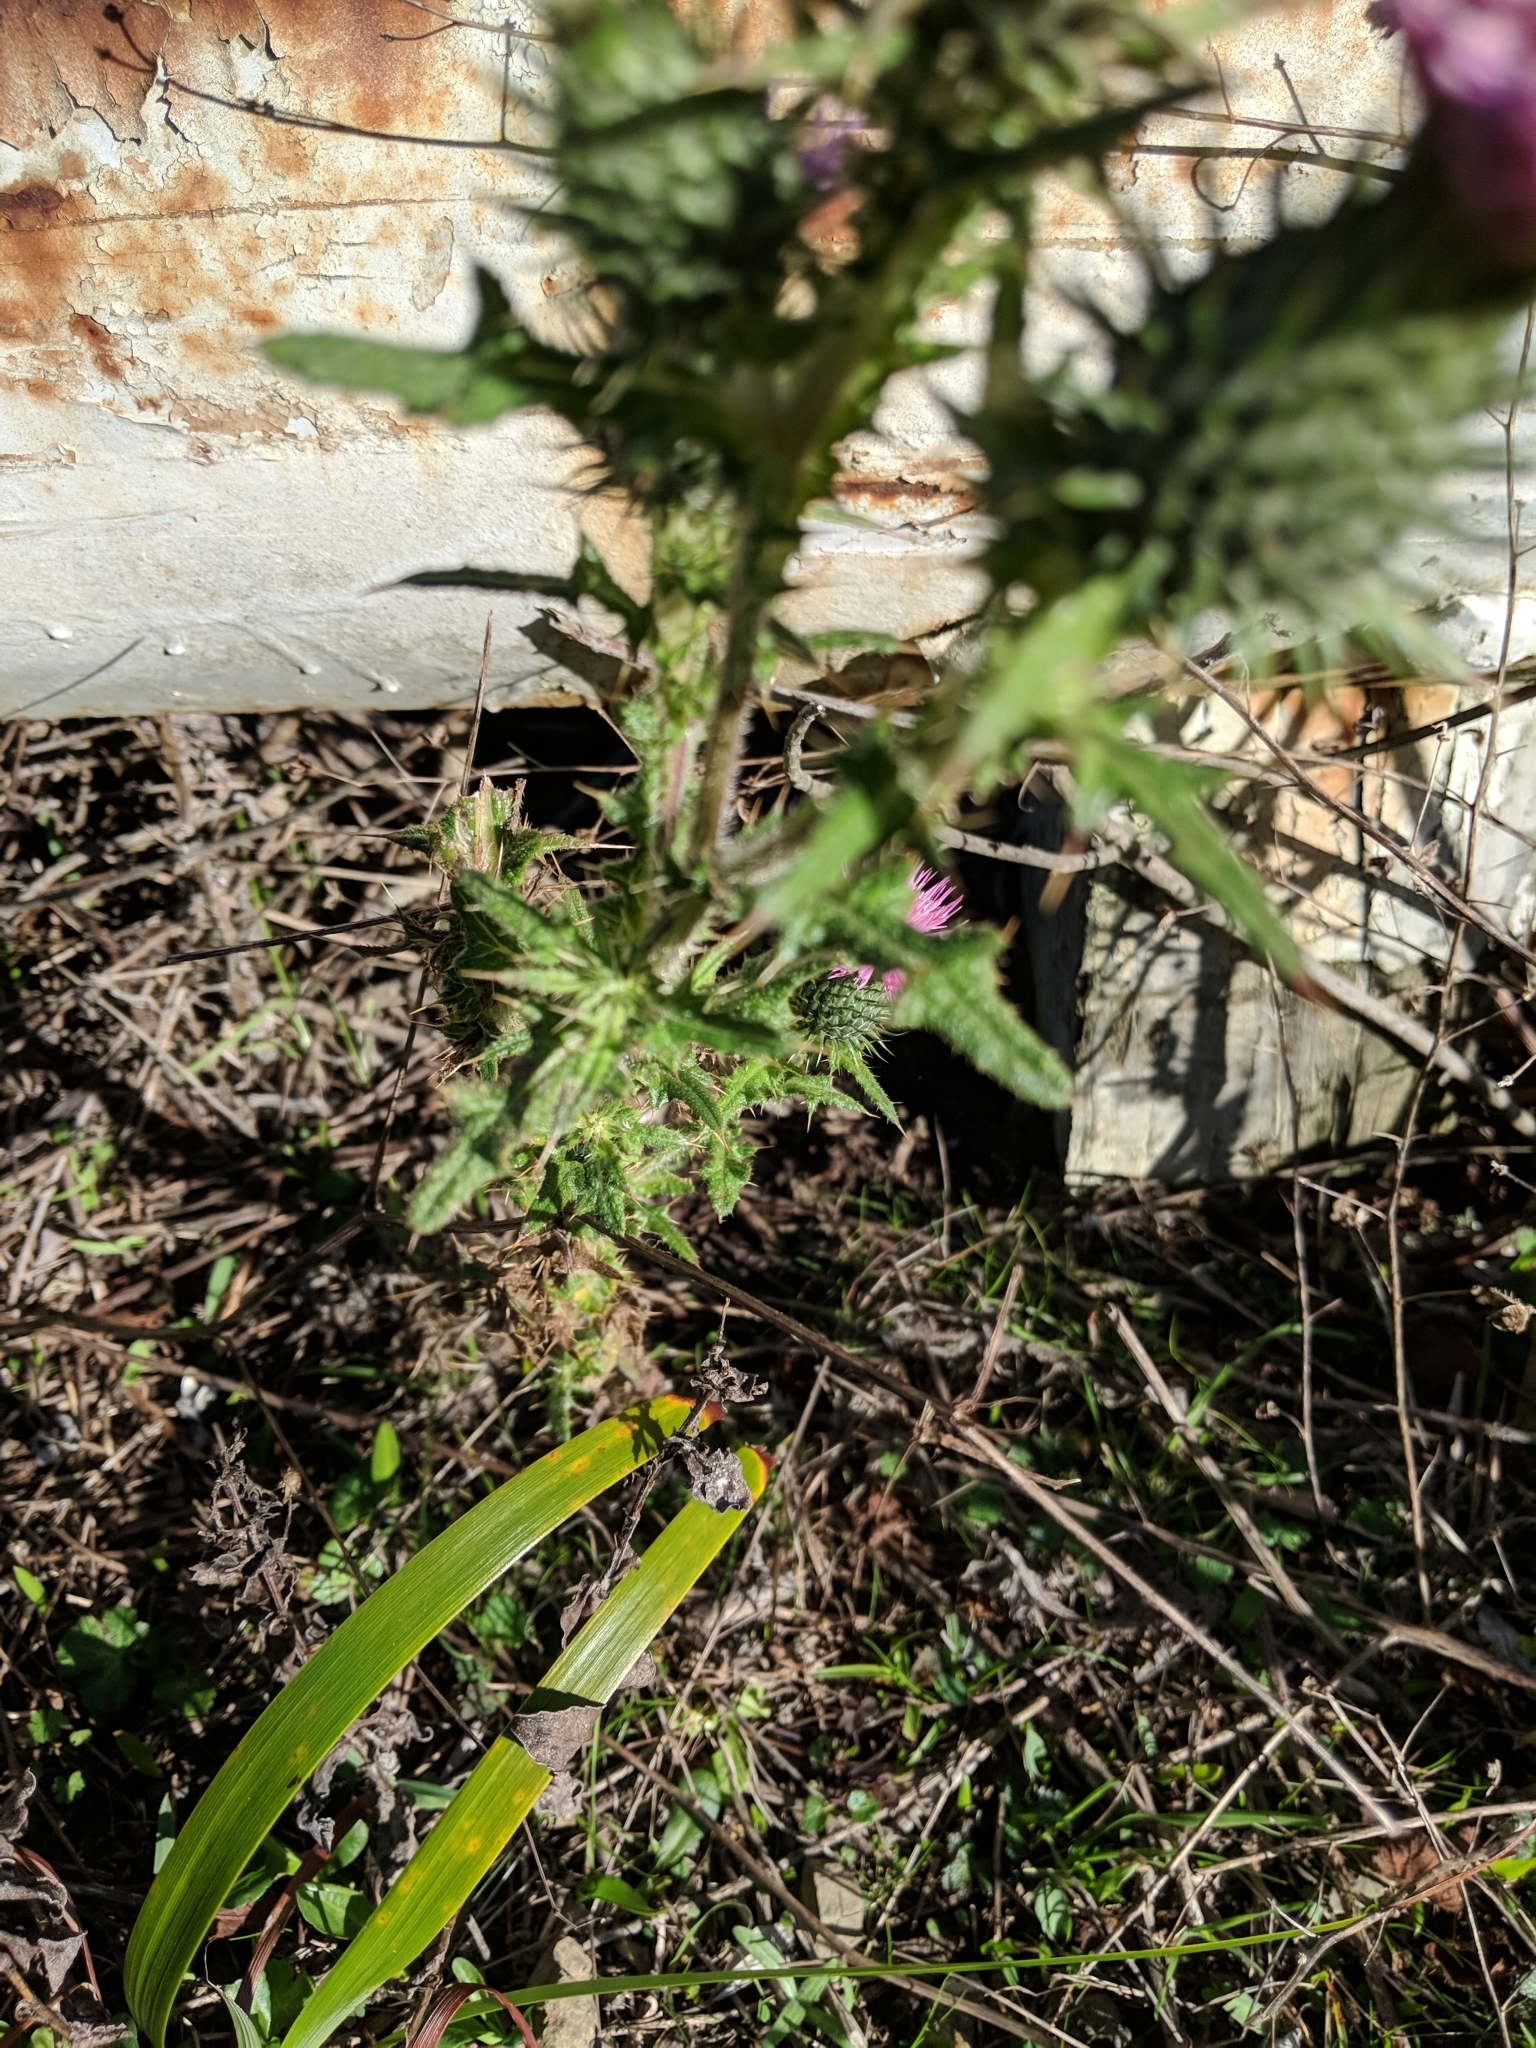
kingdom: Plantae
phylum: Tracheophyta
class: Magnoliopsida
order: Asterales
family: Asteraceae
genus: Cirsium
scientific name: Cirsium vulgare
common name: Bull thistle
